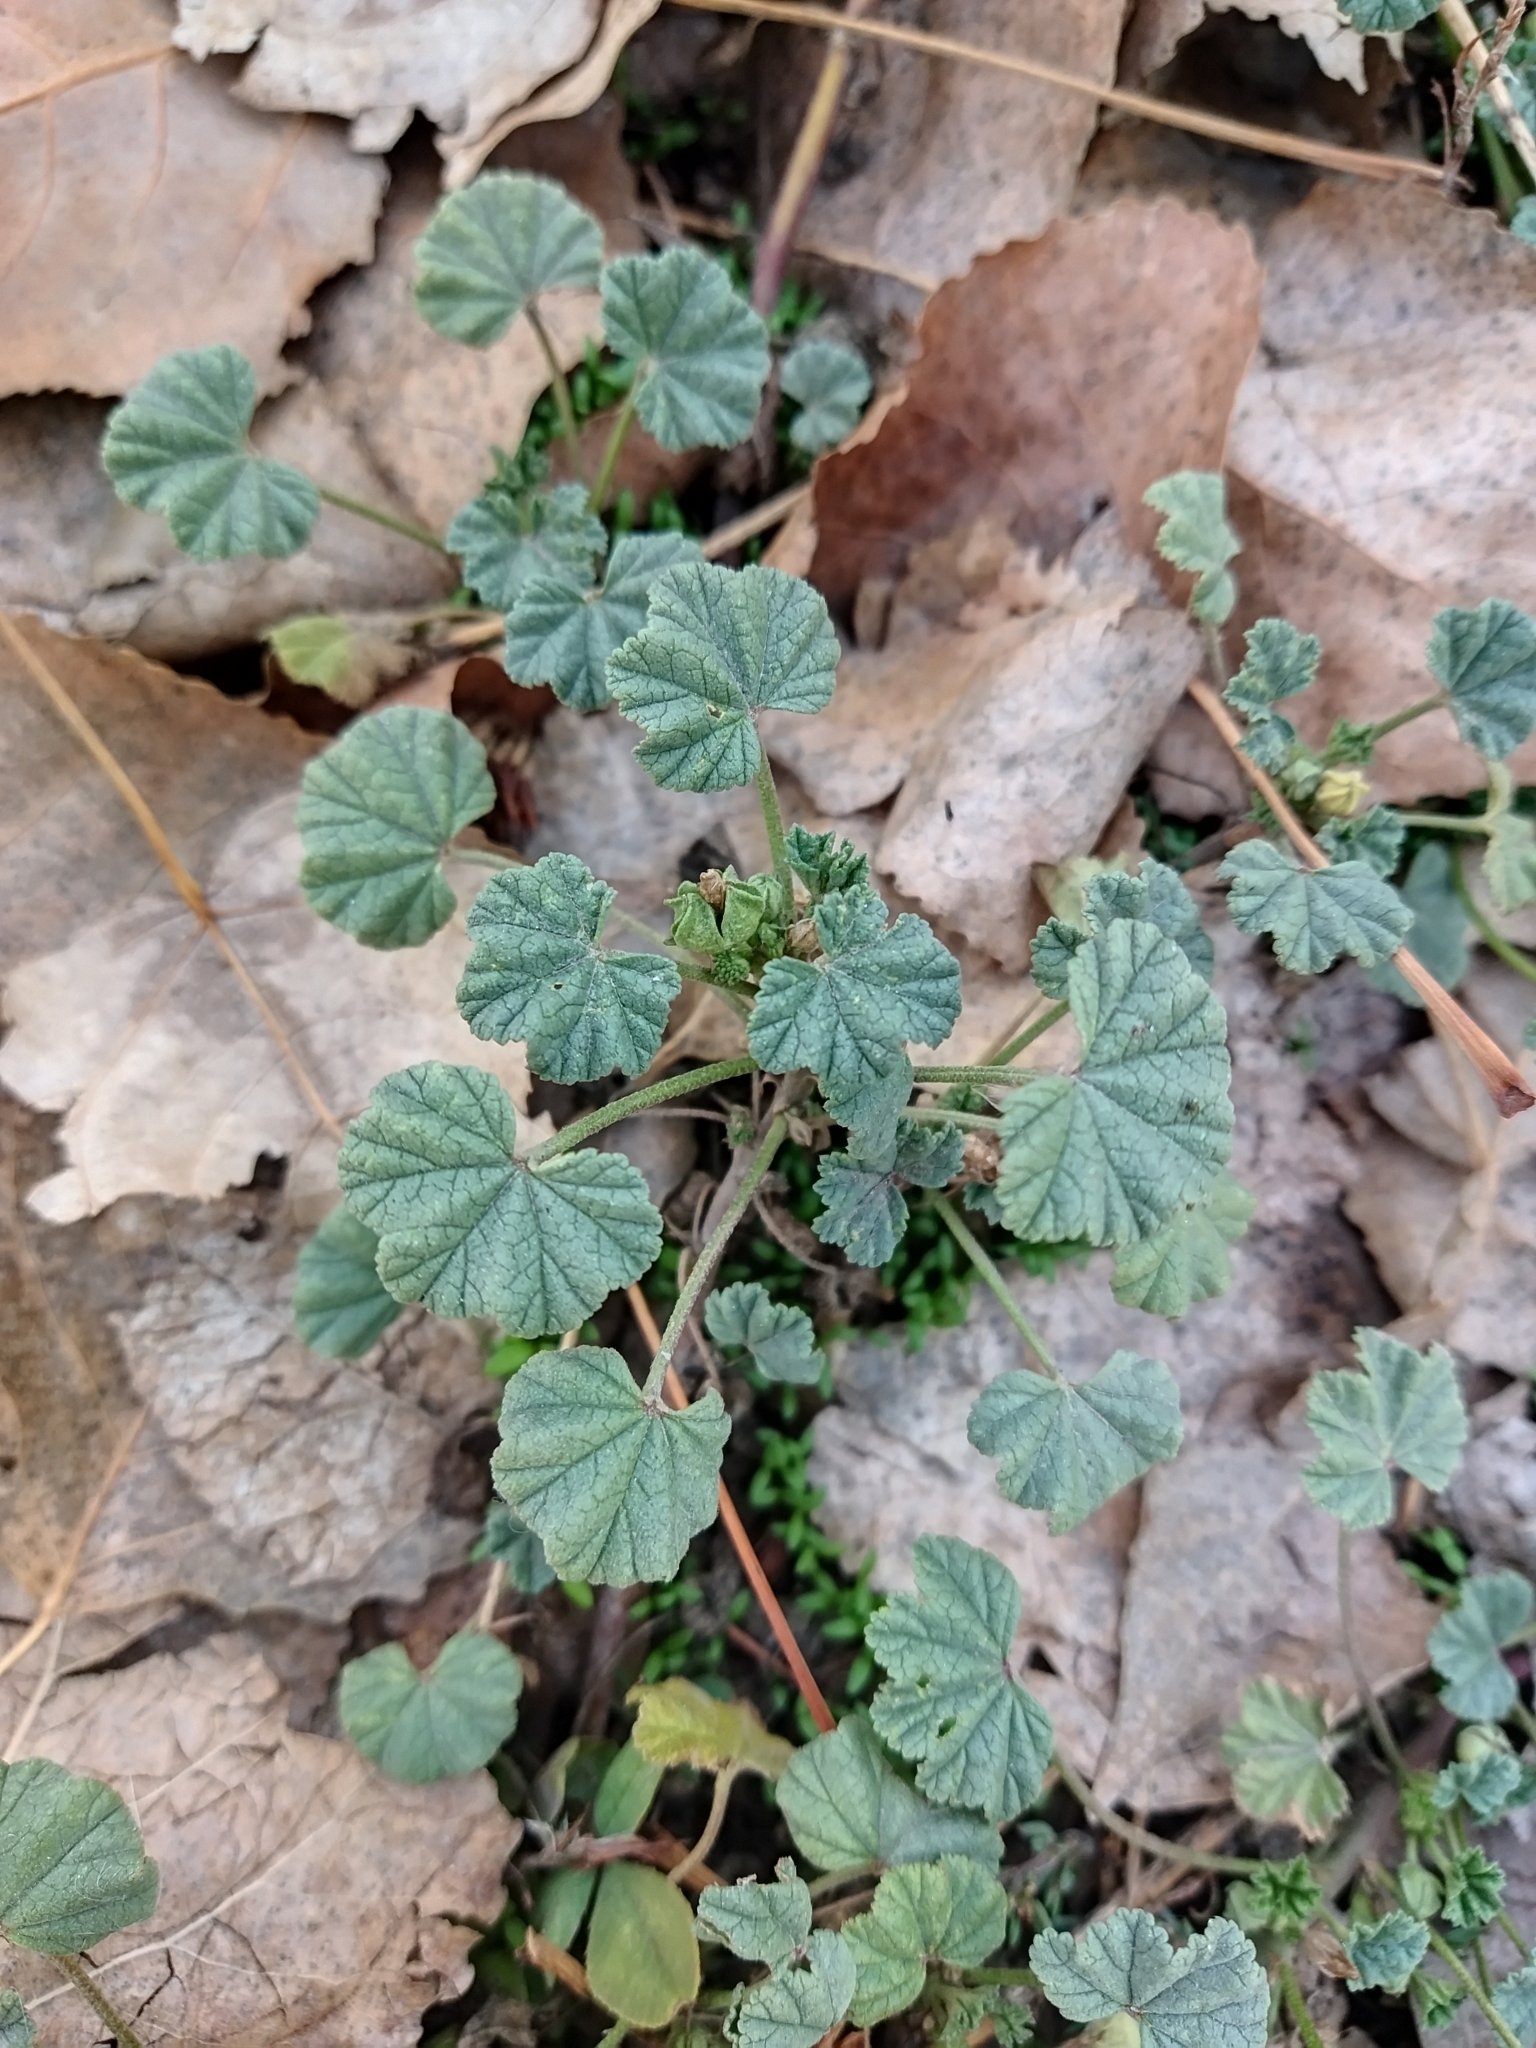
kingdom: Plantae
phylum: Tracheophyta
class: Magnoliopsida
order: Malvales
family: Malvaceae
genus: Malva
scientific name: Malva neglecta
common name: Common mallow
